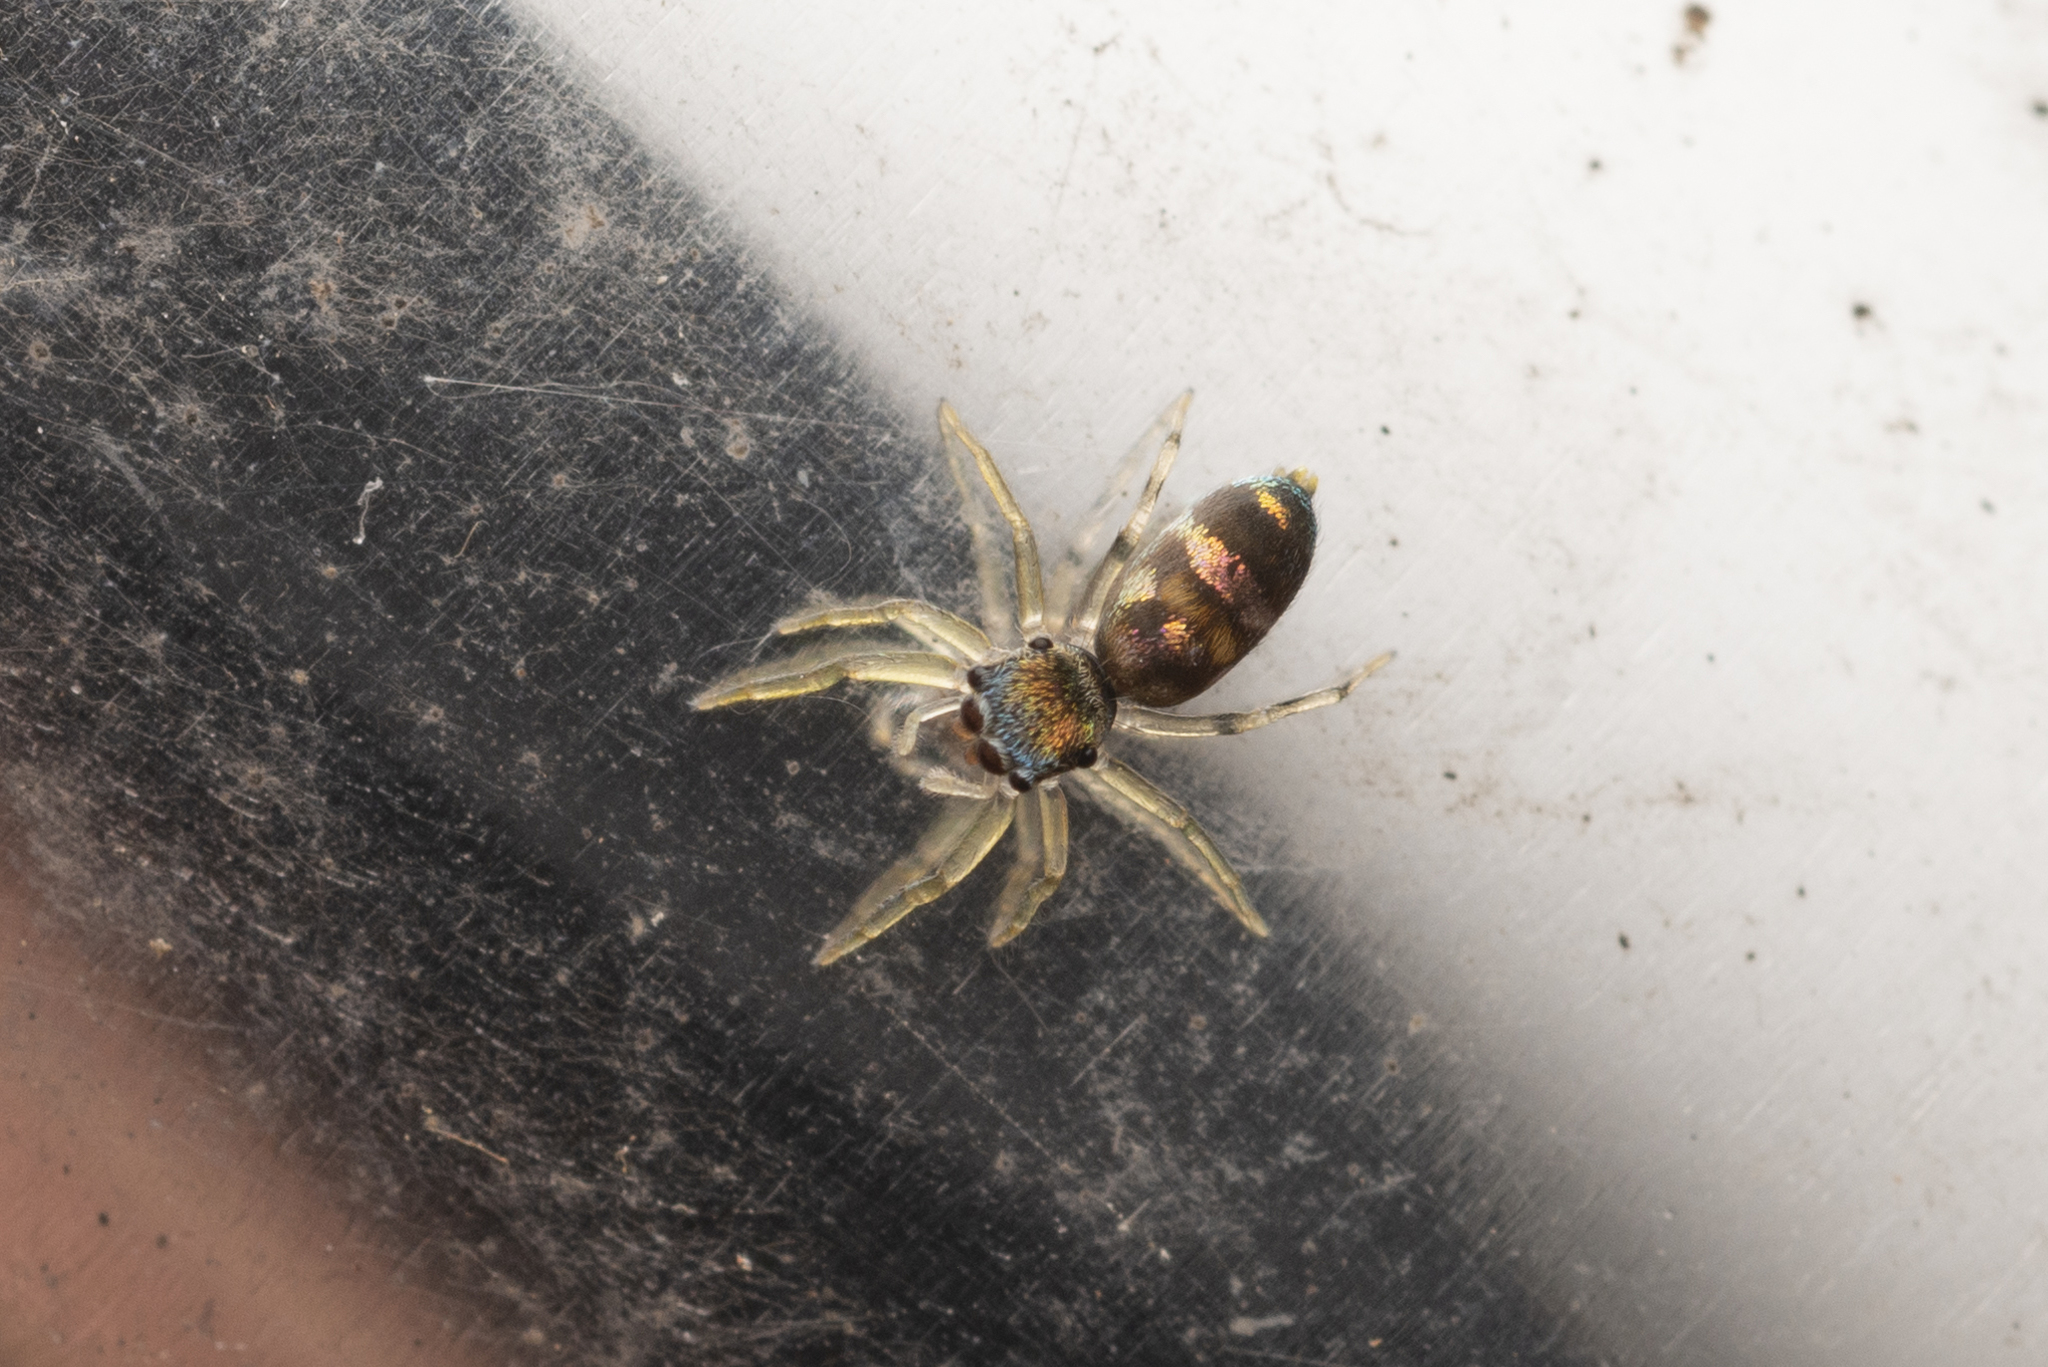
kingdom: Animalia
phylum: Arthropoda
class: Arachnida
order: Araneae
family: Salticidae
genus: Chrysilla
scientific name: Chrysilla acerosa
